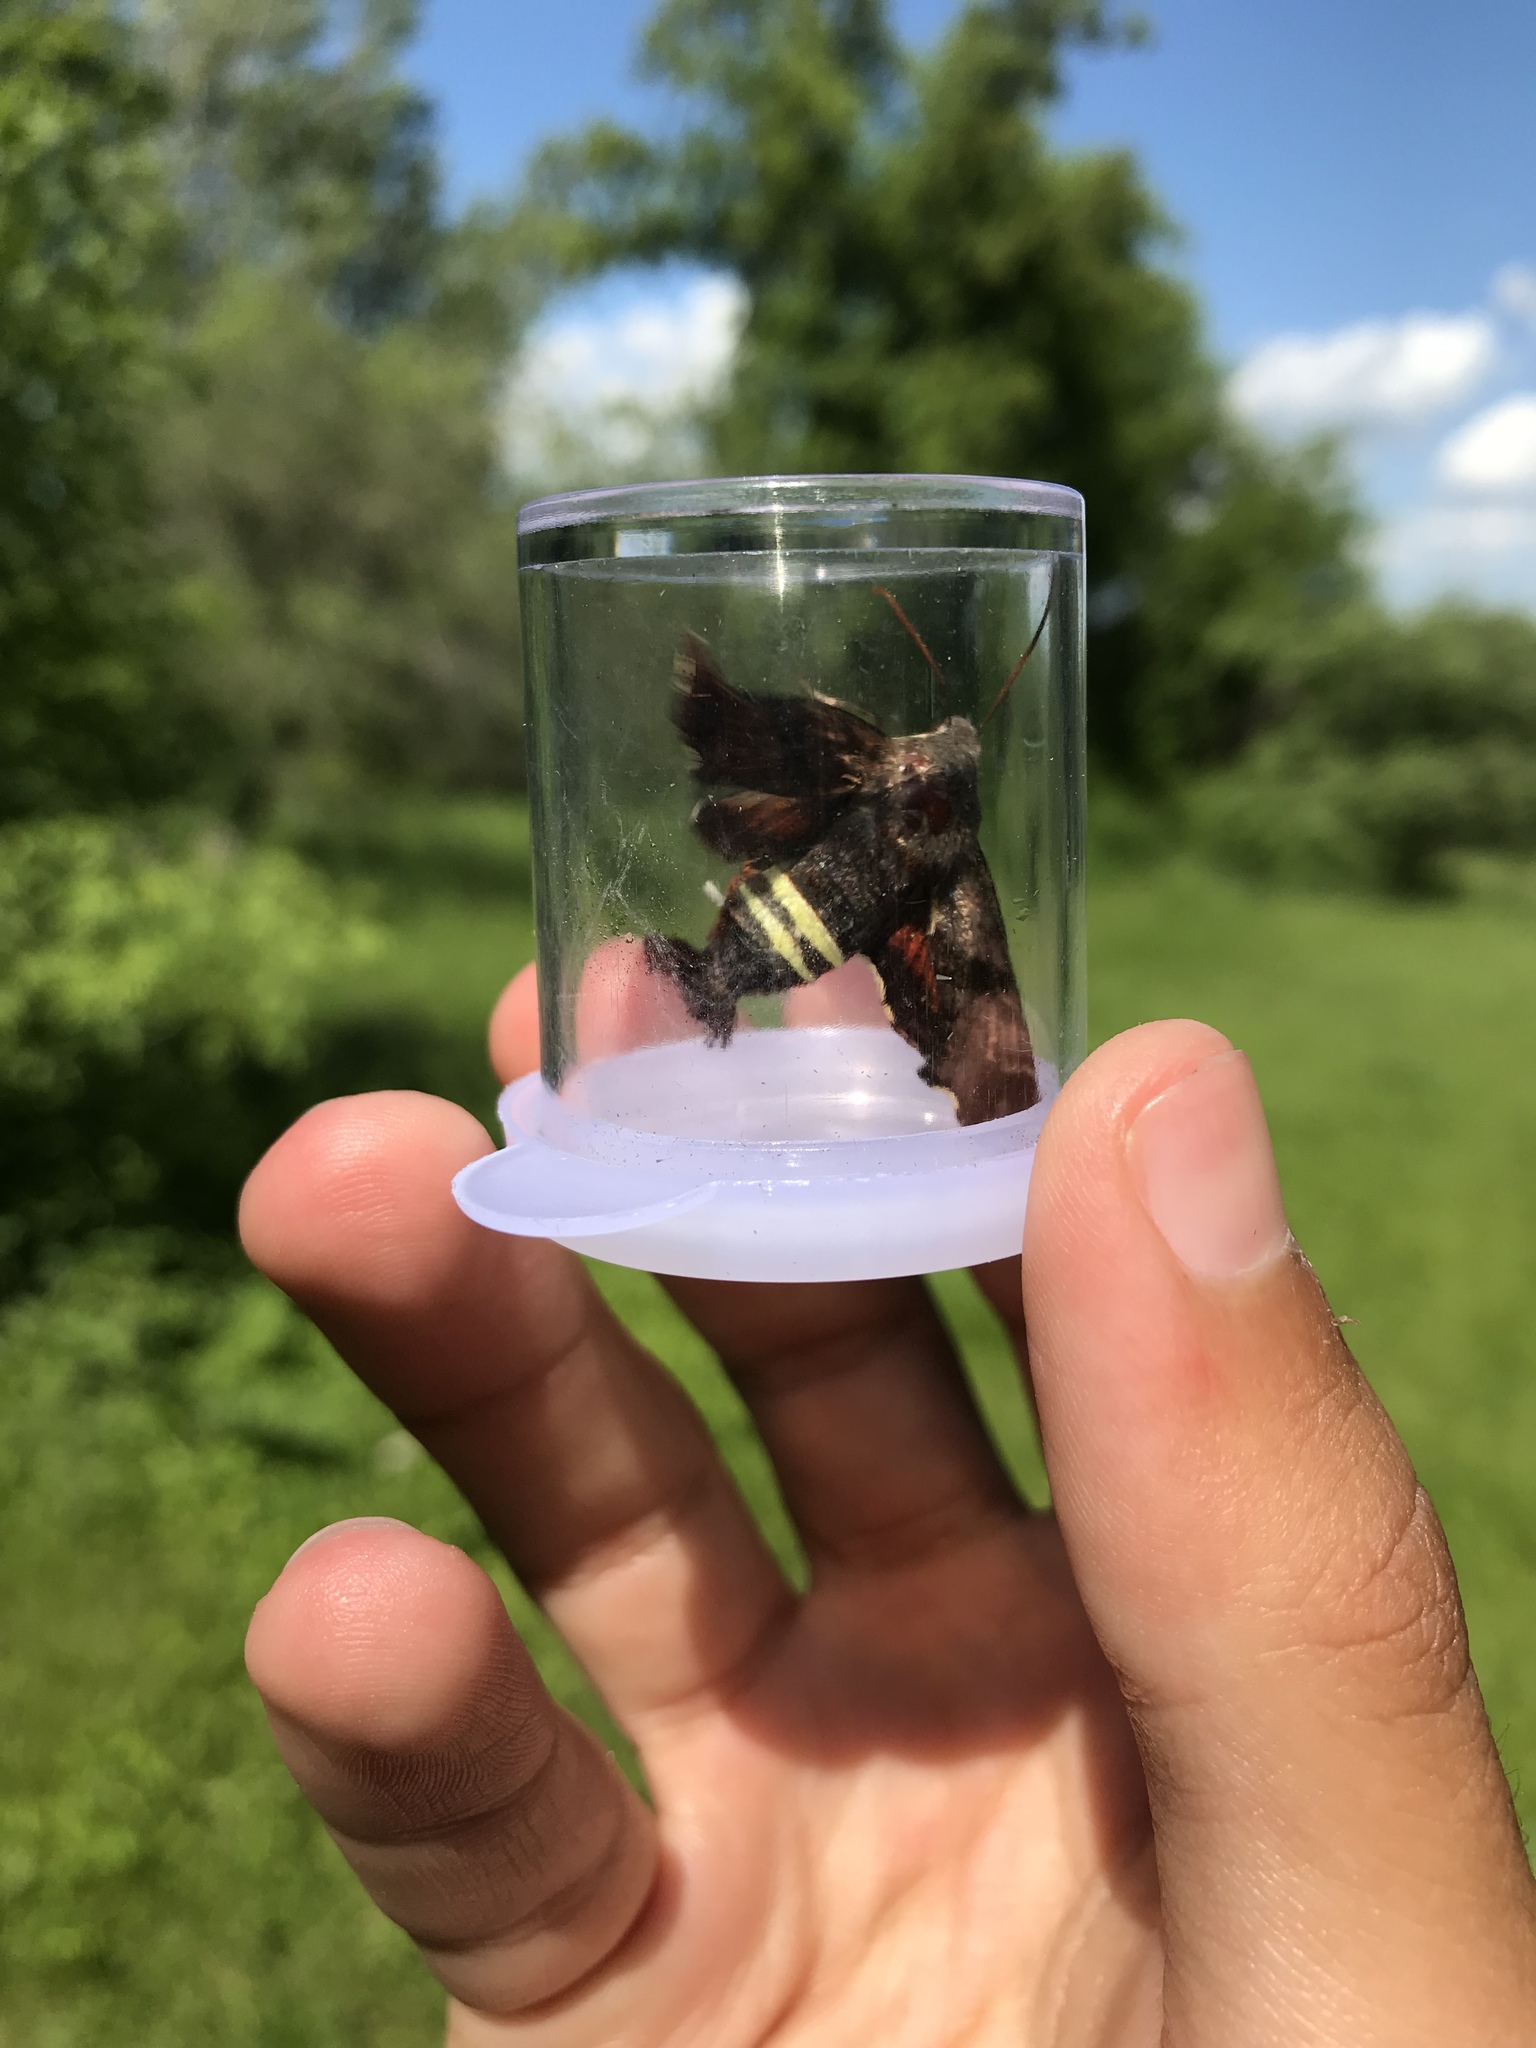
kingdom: Animalia
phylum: Arthropoda
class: Insecta
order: Lepidoptera
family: Sphingidae
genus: Amphion
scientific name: Amphion floridensis
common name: Nessus sphinx
